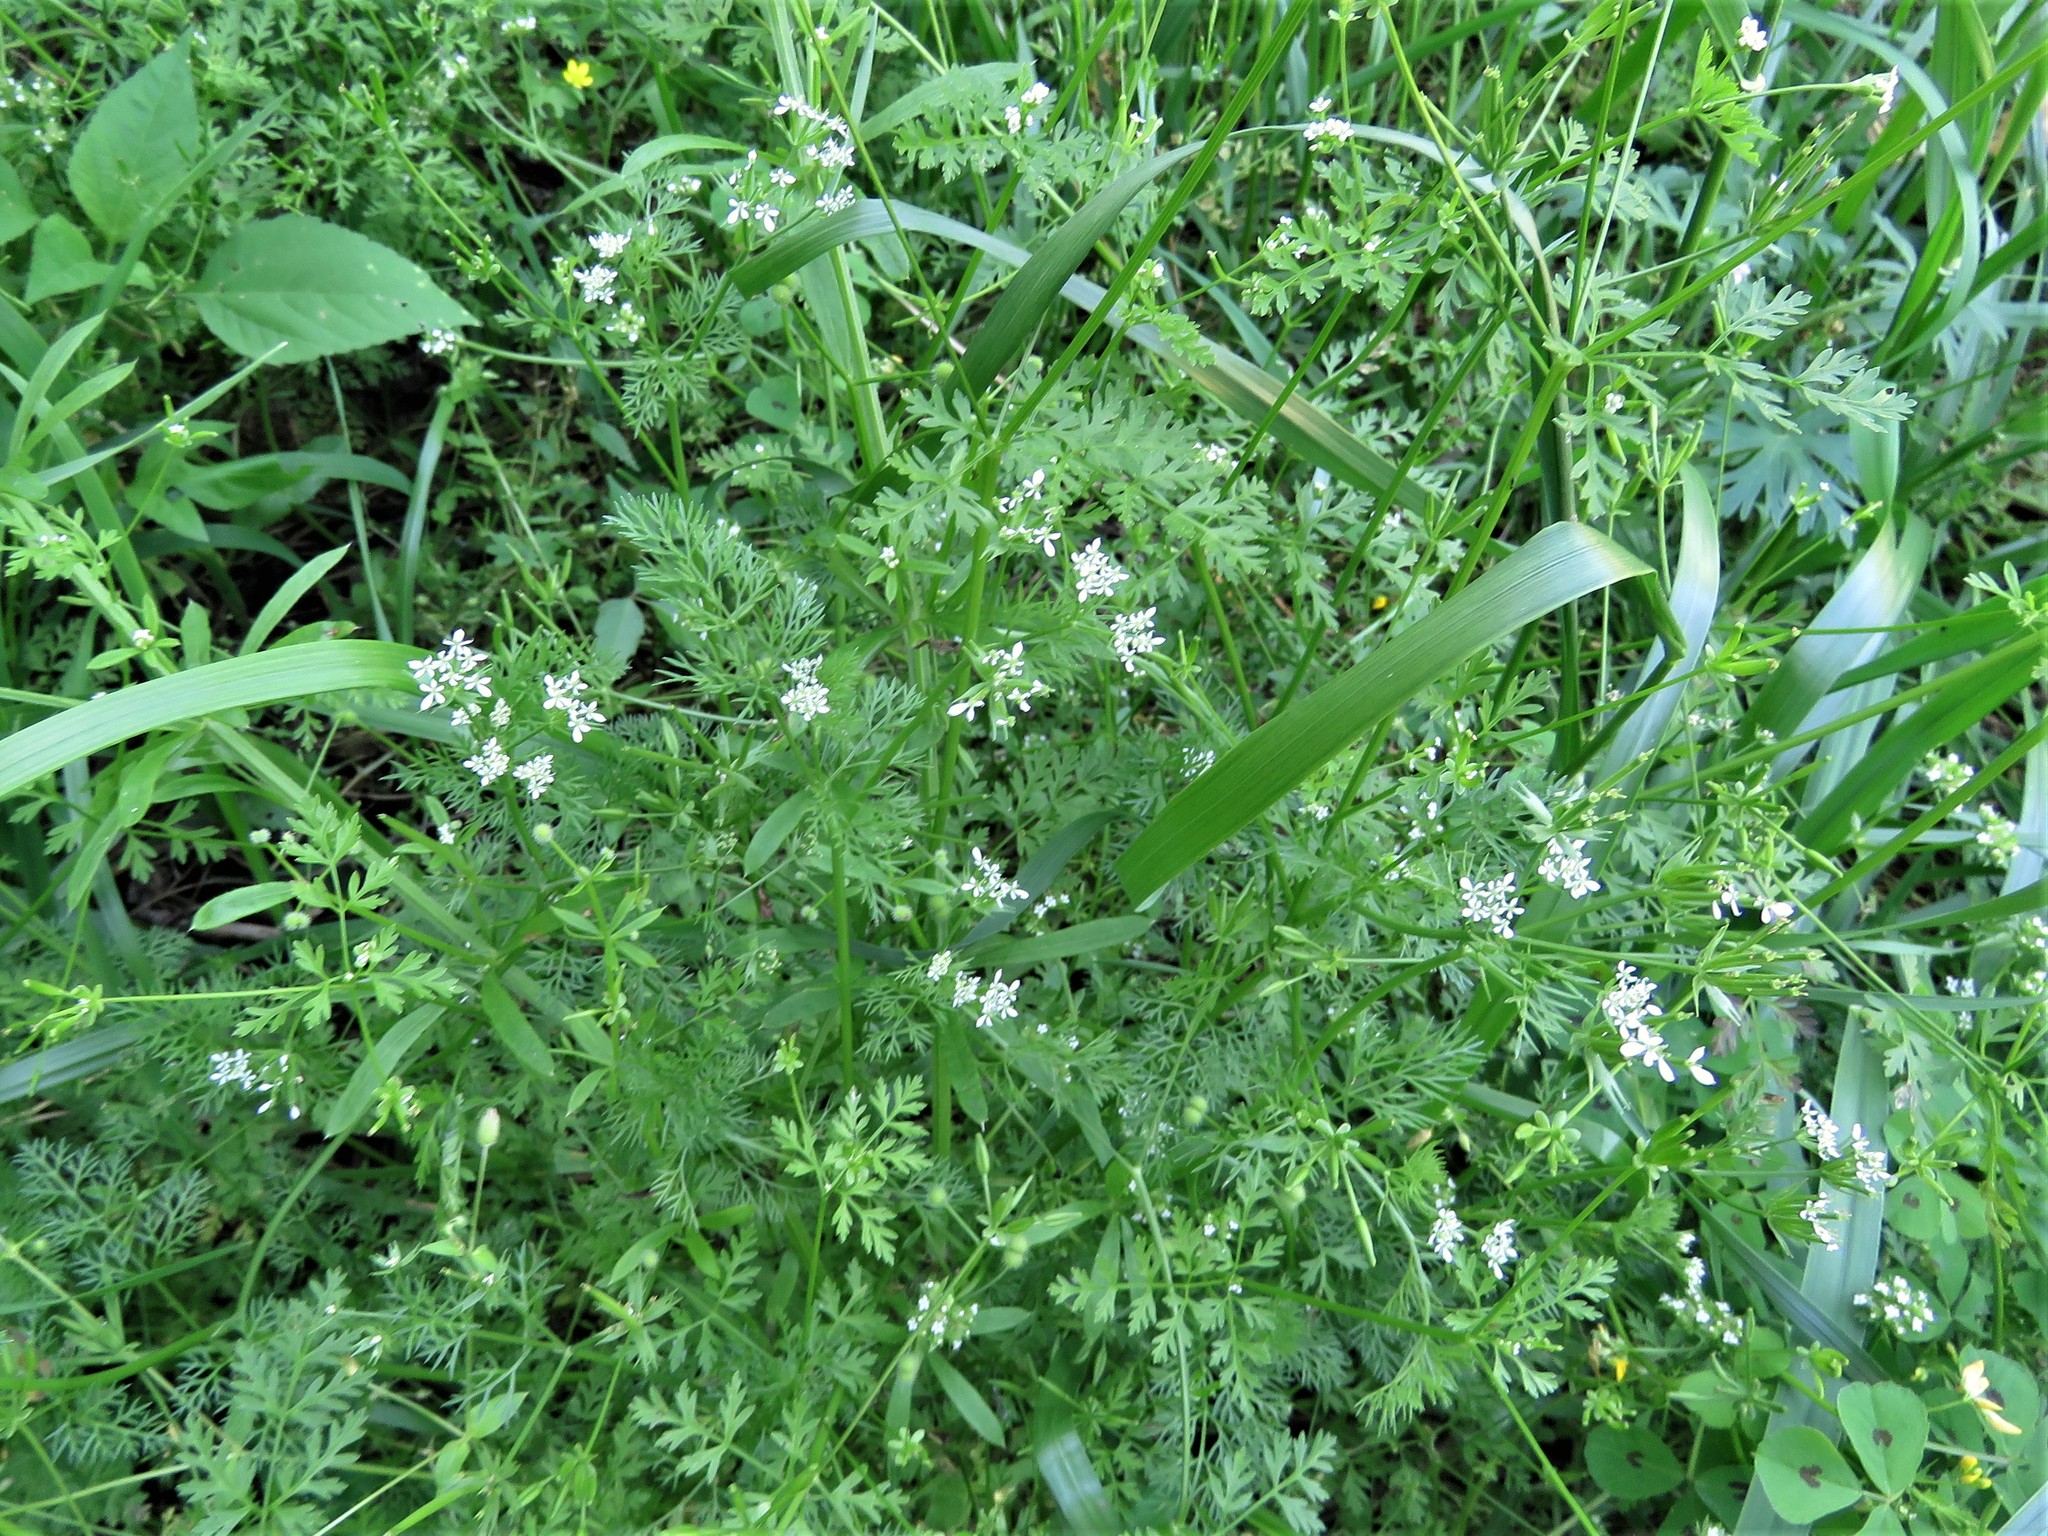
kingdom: Plantae
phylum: Tracheophyta
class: Magnoliopsida
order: Apiales
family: Apiaceae
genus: Scandix
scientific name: Scandix pecten-veneris
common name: Shepherd's-needle
